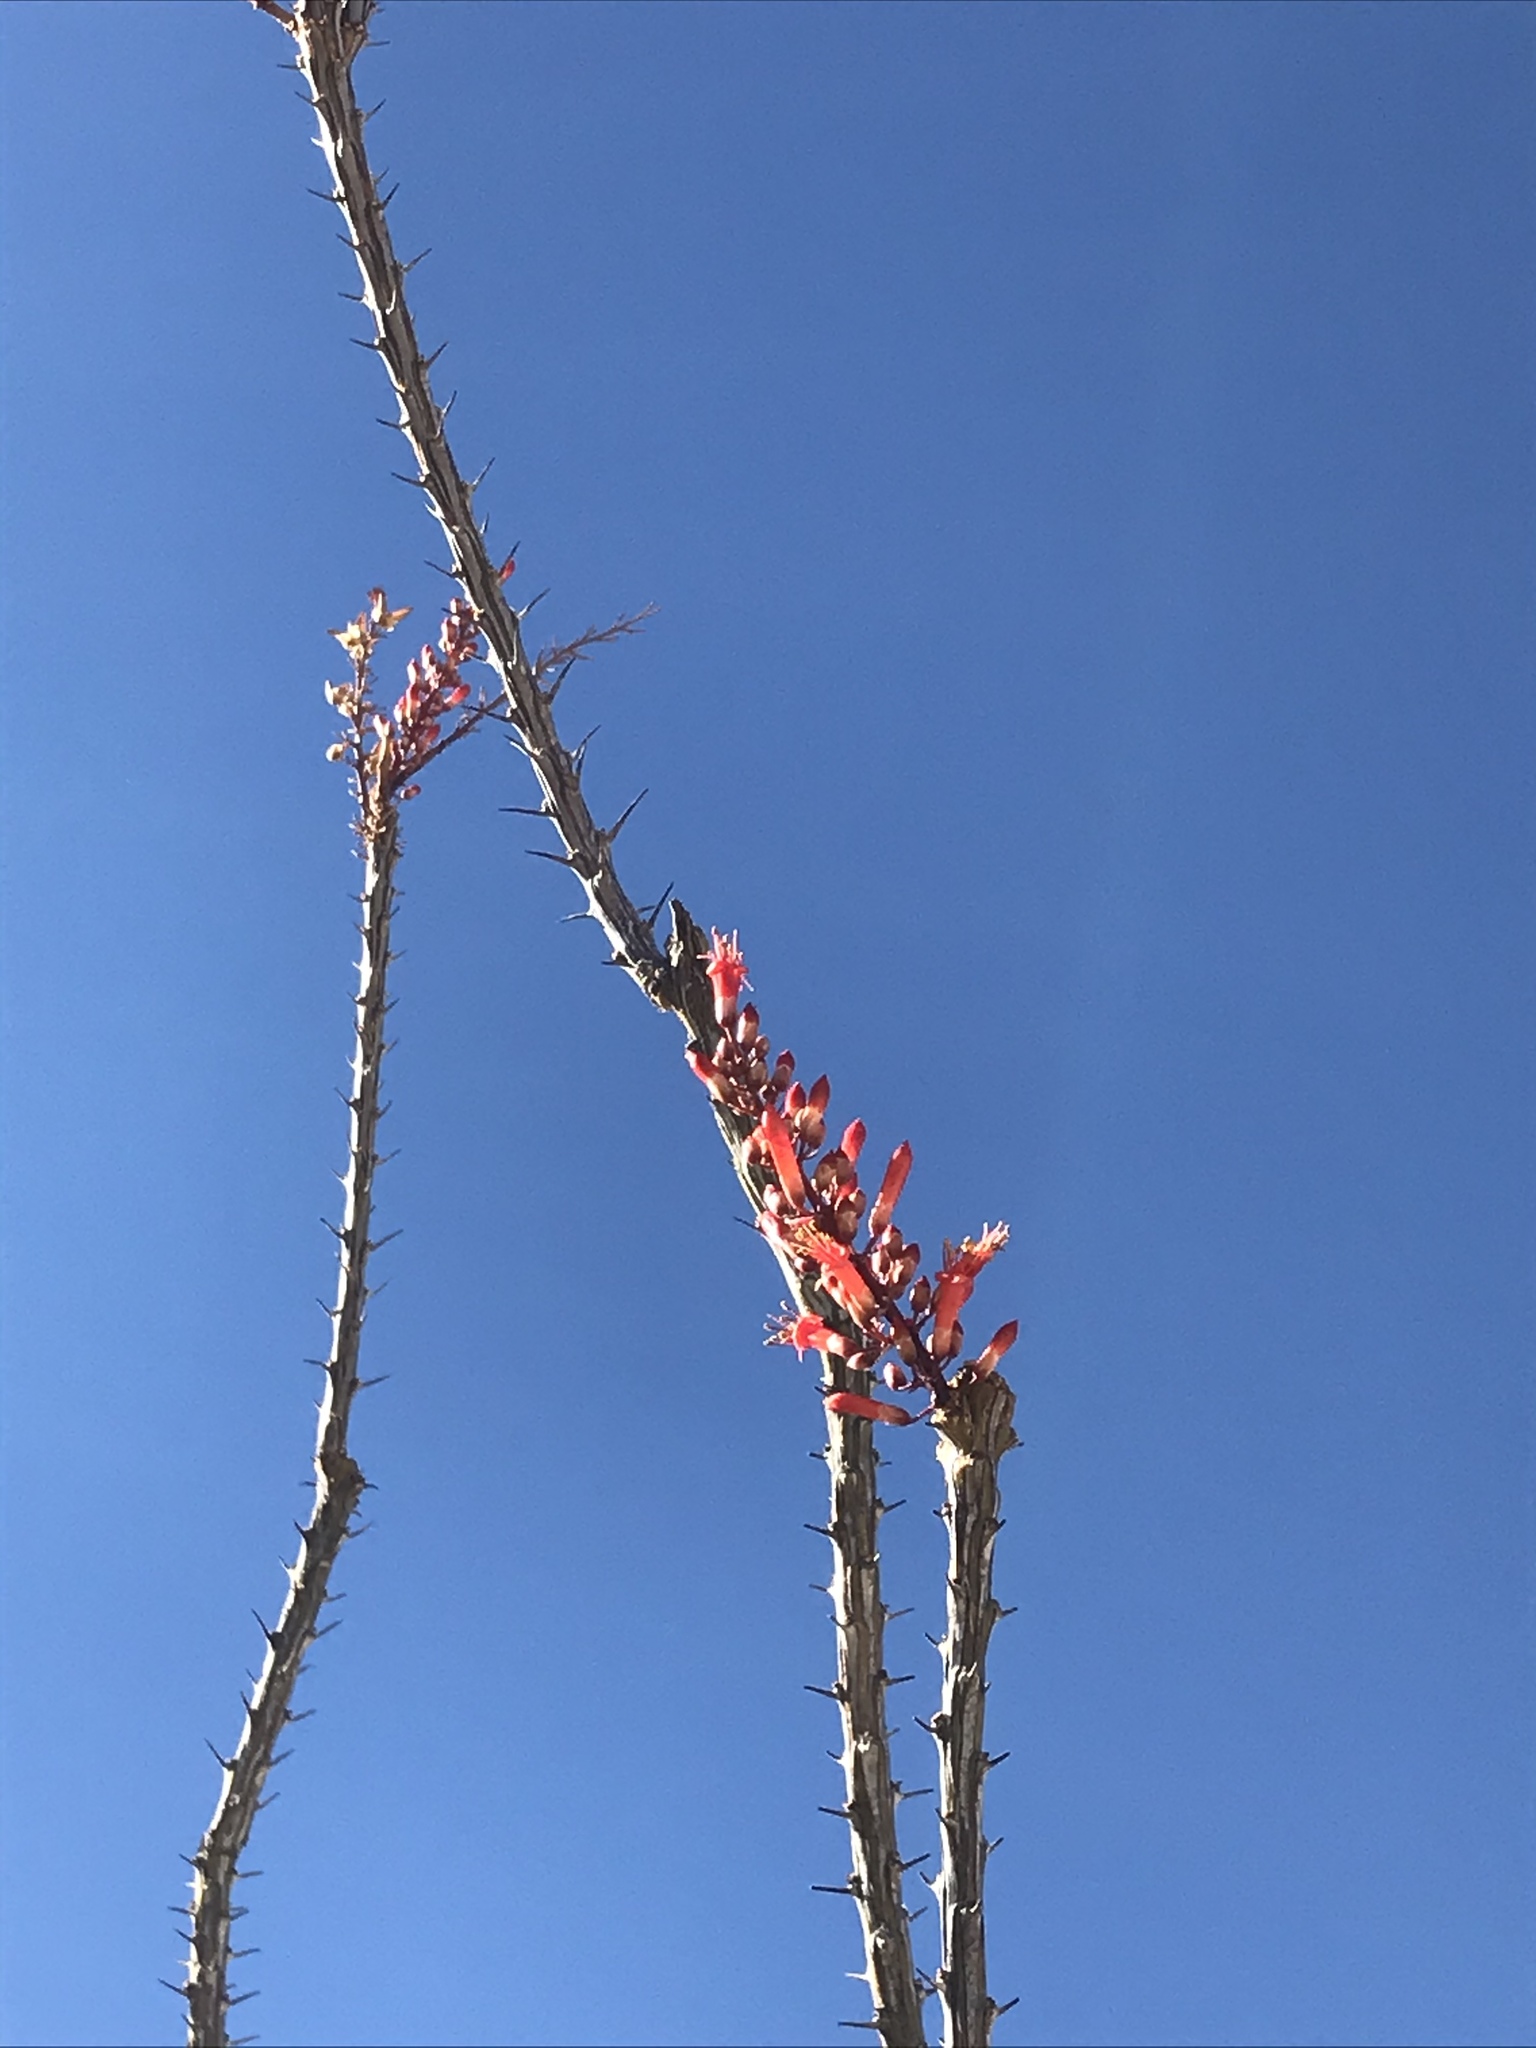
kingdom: Plantae
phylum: Tracheophyta
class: Magnoliopsida
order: Ericales
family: Fouquieriaceae
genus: Fouquieria
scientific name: Fouquieria splendens
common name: Vine-cactus
